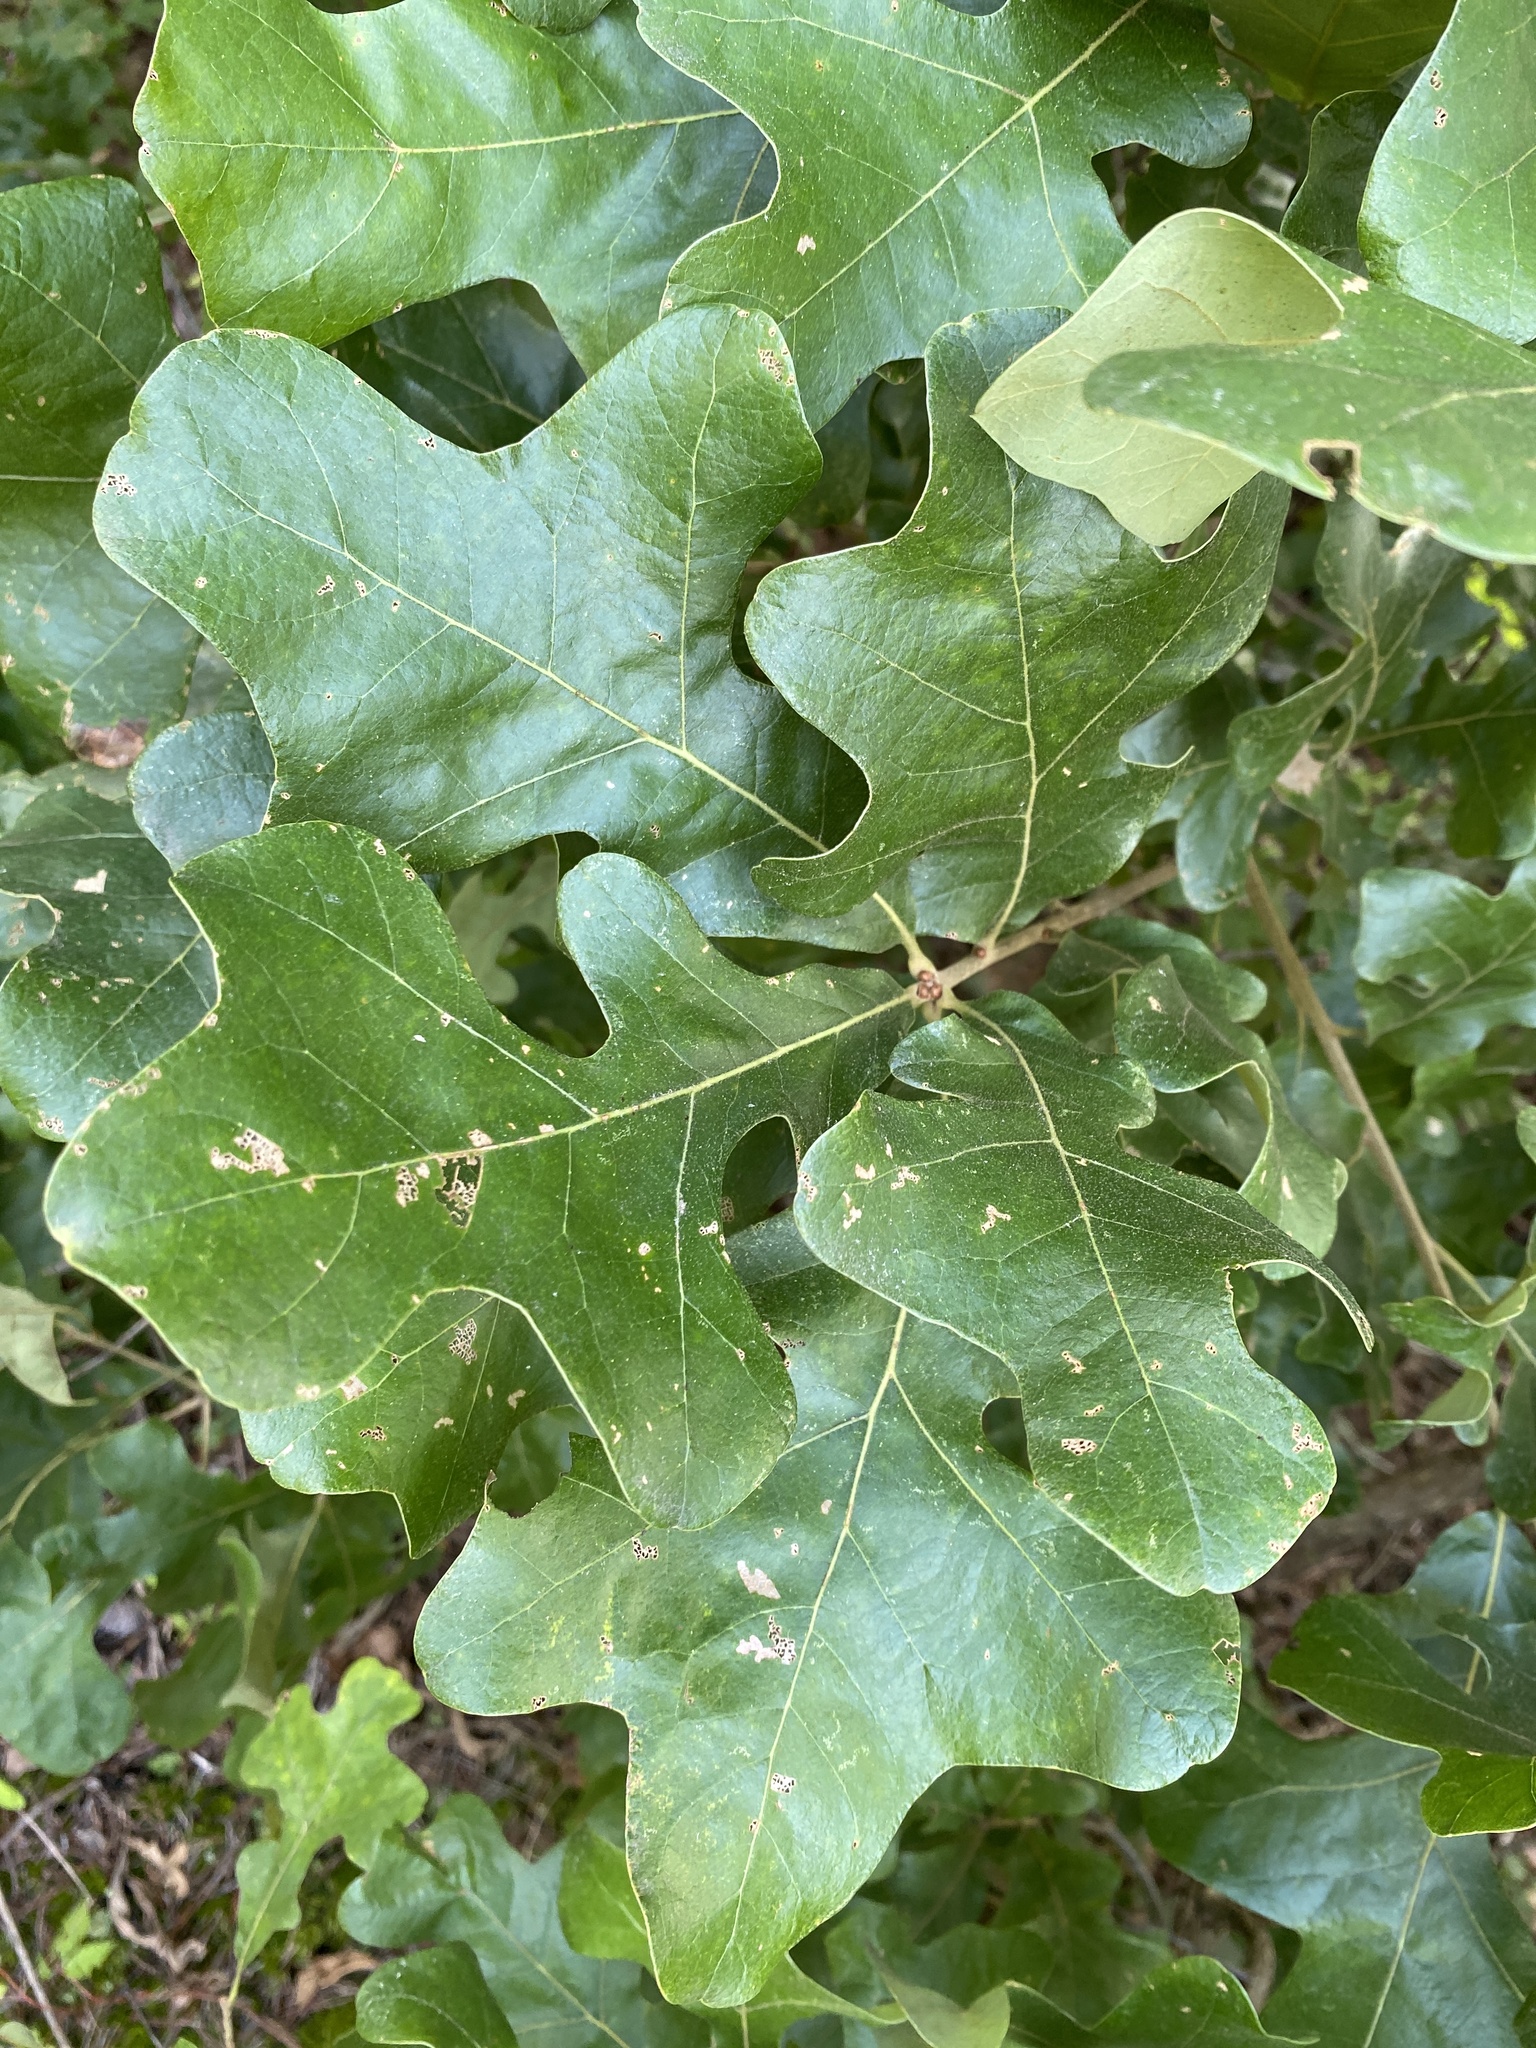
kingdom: Plantae
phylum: Tracheophyta
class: Magnoliopsida
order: Fagales
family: Fagaceae
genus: Quercus
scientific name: Quercus stellata
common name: Post oak
